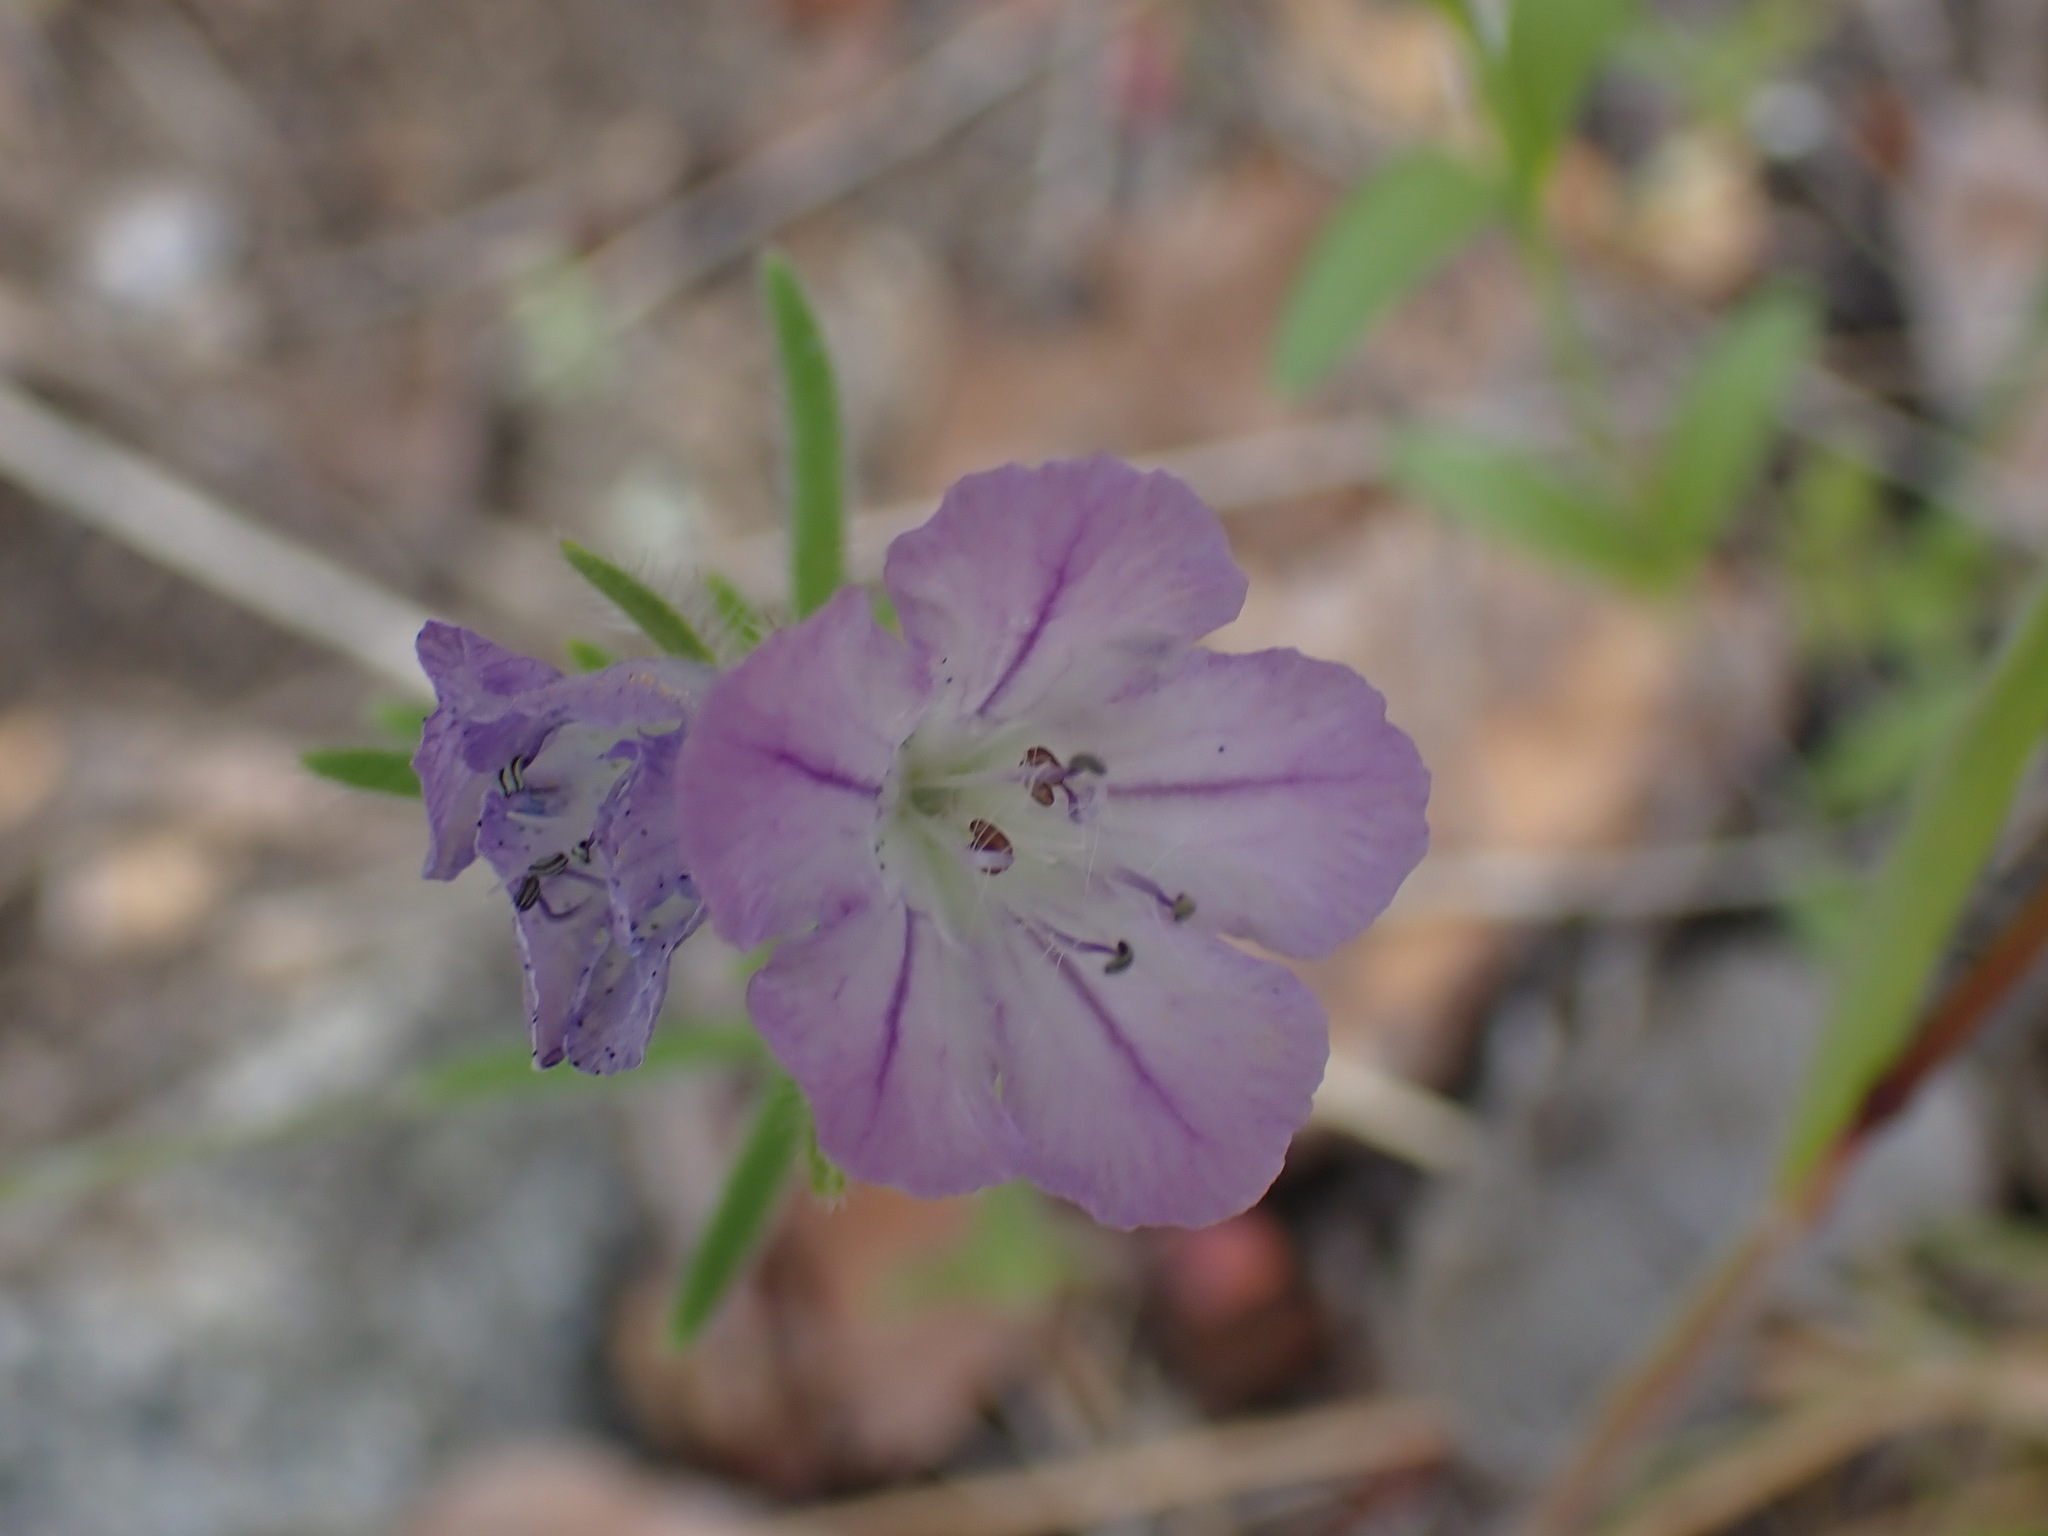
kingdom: Plantae
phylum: Tracheophyta
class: Magnoliopsida
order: Boraginales
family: Hydrophyllaceae
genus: Phacelia
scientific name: Phacelia linearis
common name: Linear-leaved phacelia
